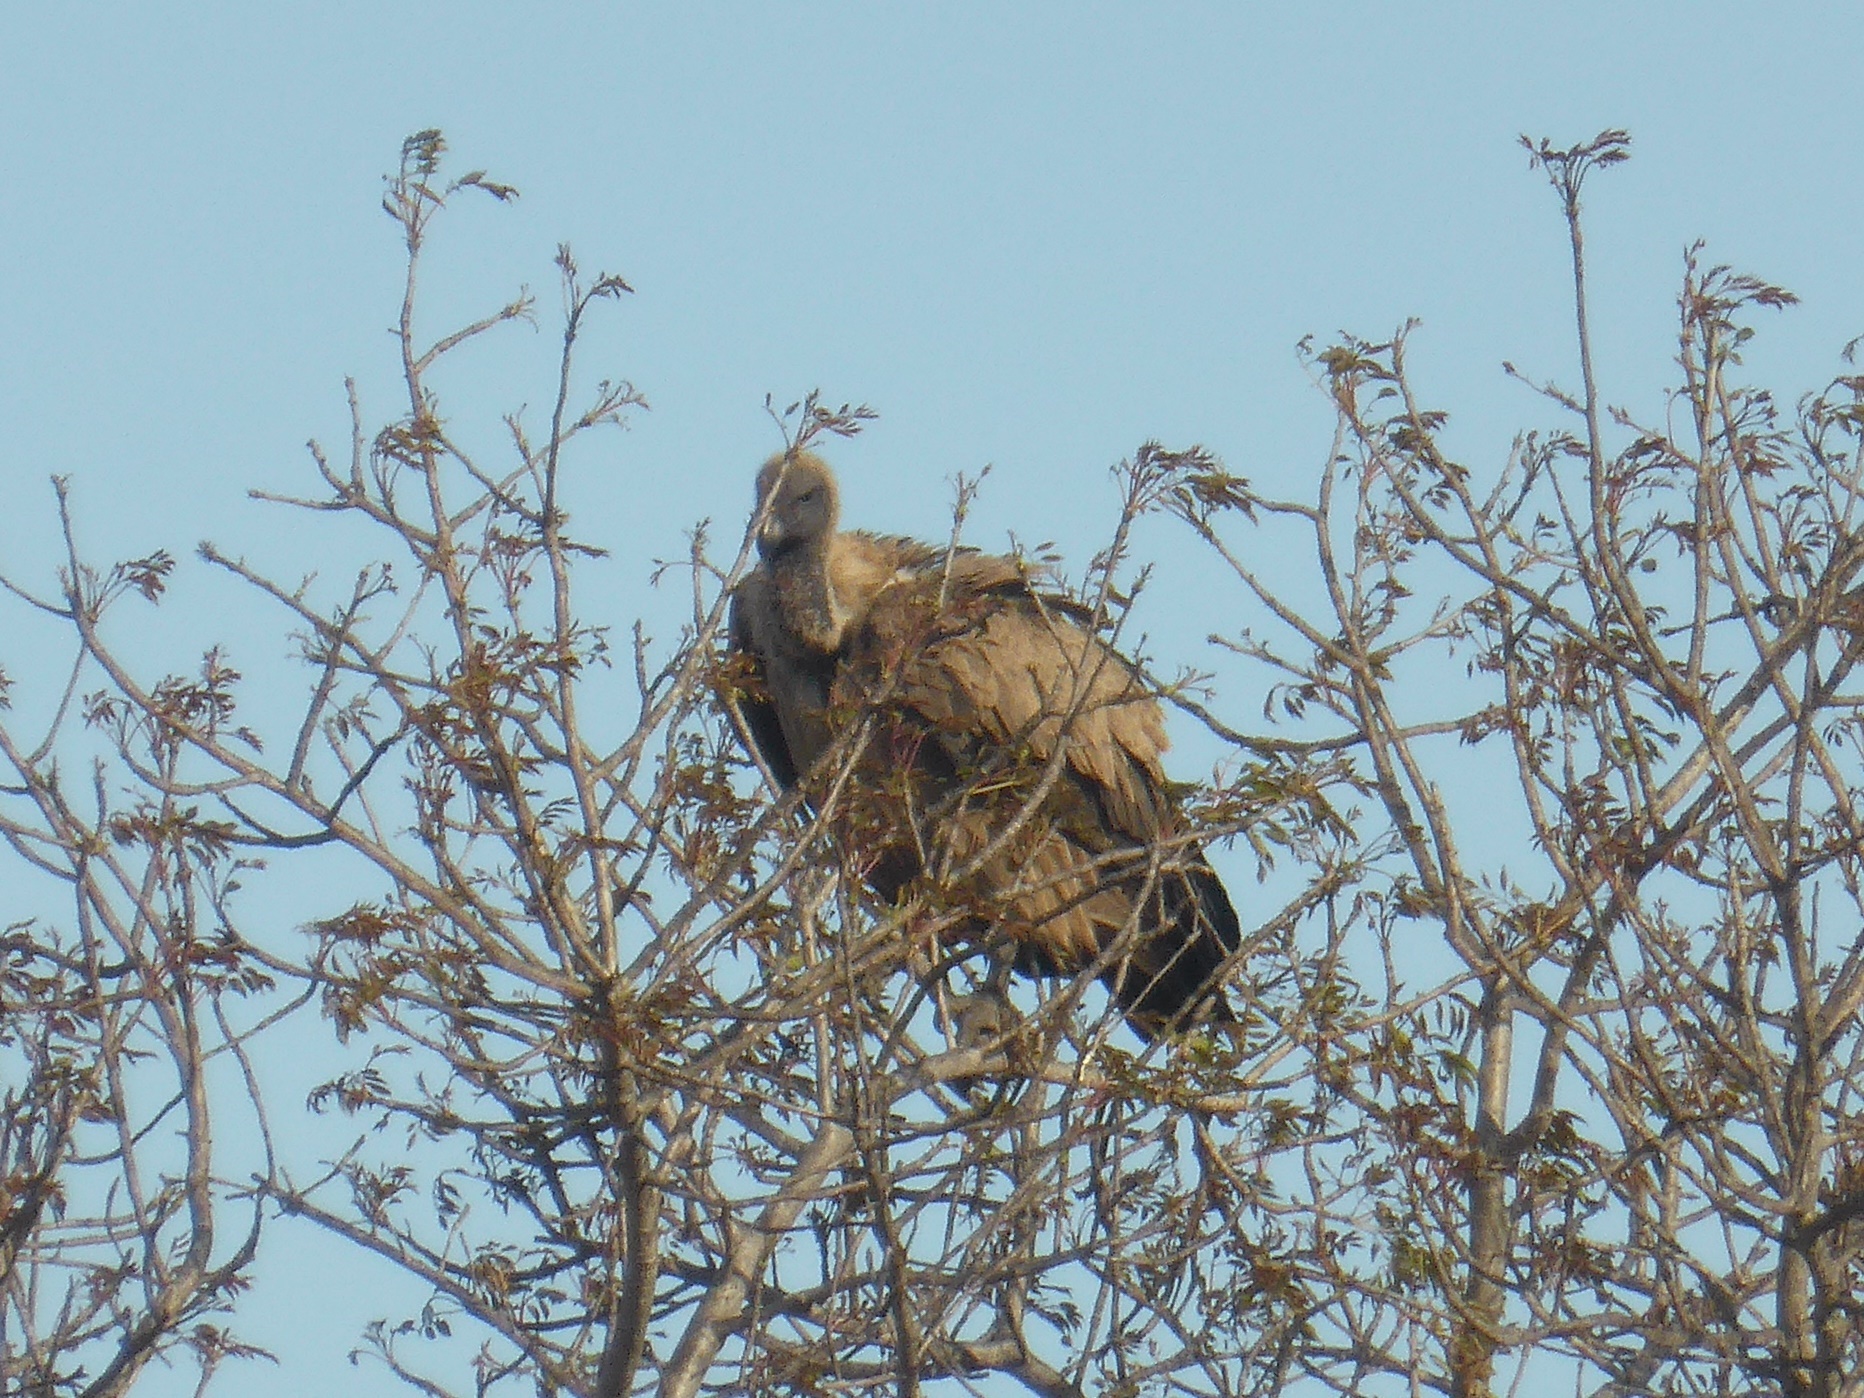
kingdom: Animalia
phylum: Chordata
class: Aves
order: Accipitriformes
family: Accipitridae
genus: Gyps
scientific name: Gyps africanus
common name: White-backed vulture
